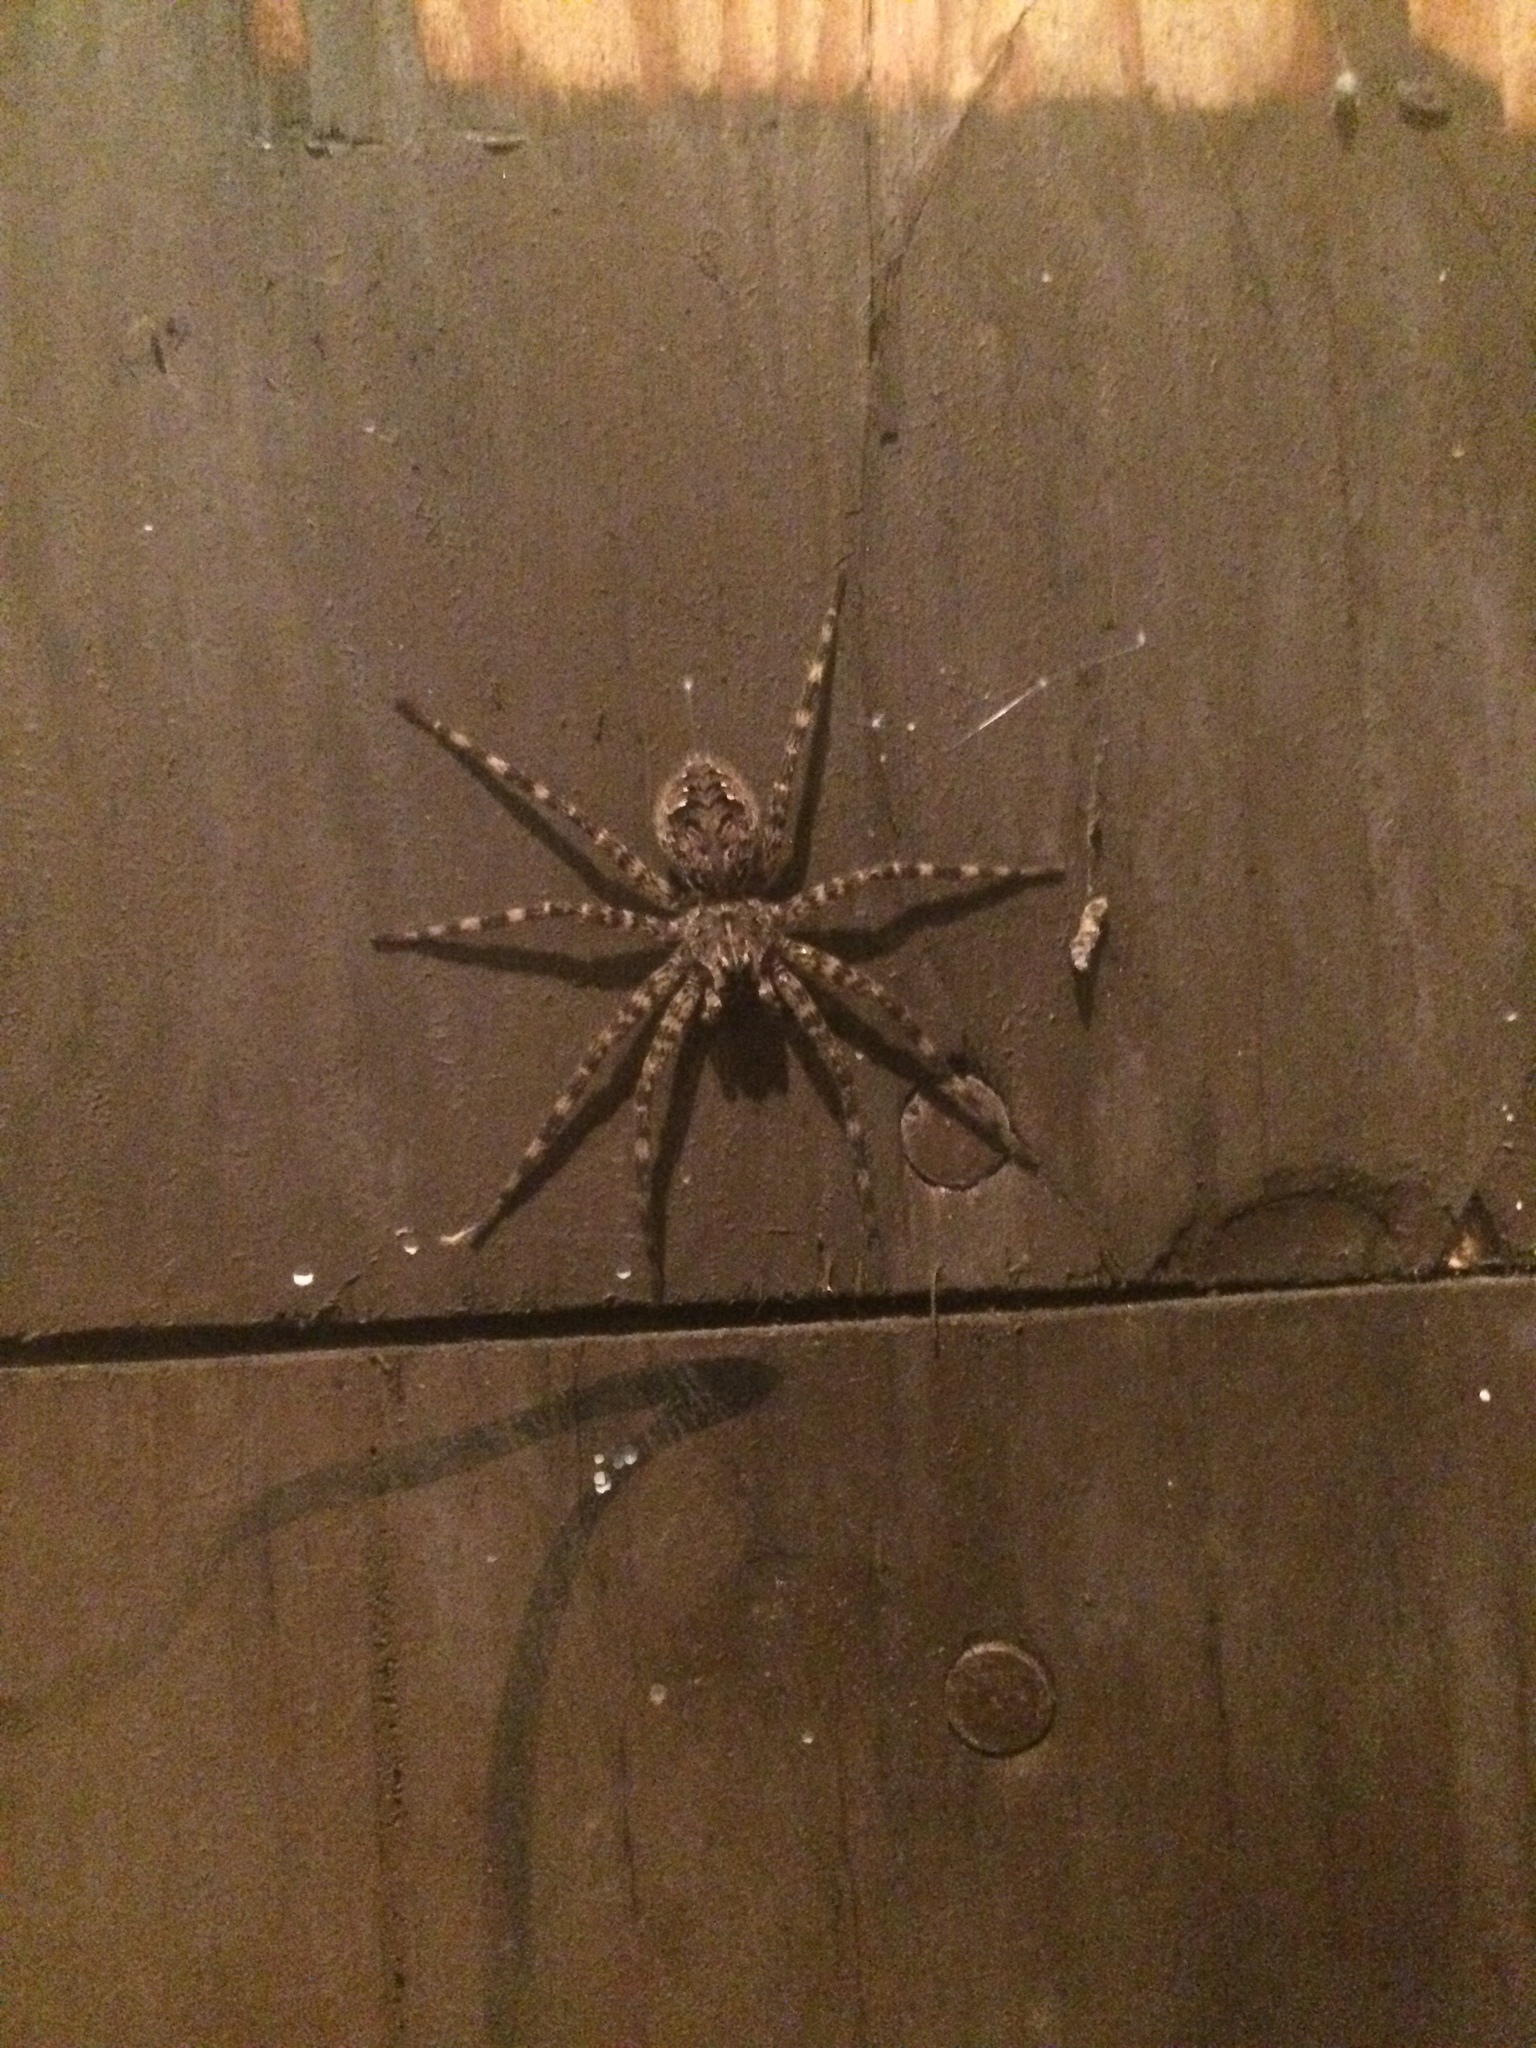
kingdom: Animalia
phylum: Arthropoda
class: Arachnida
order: Araneae
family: Pisauridae
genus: Dolomedes
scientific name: Dolomedes tenebrosus
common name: Dark fishing spider
